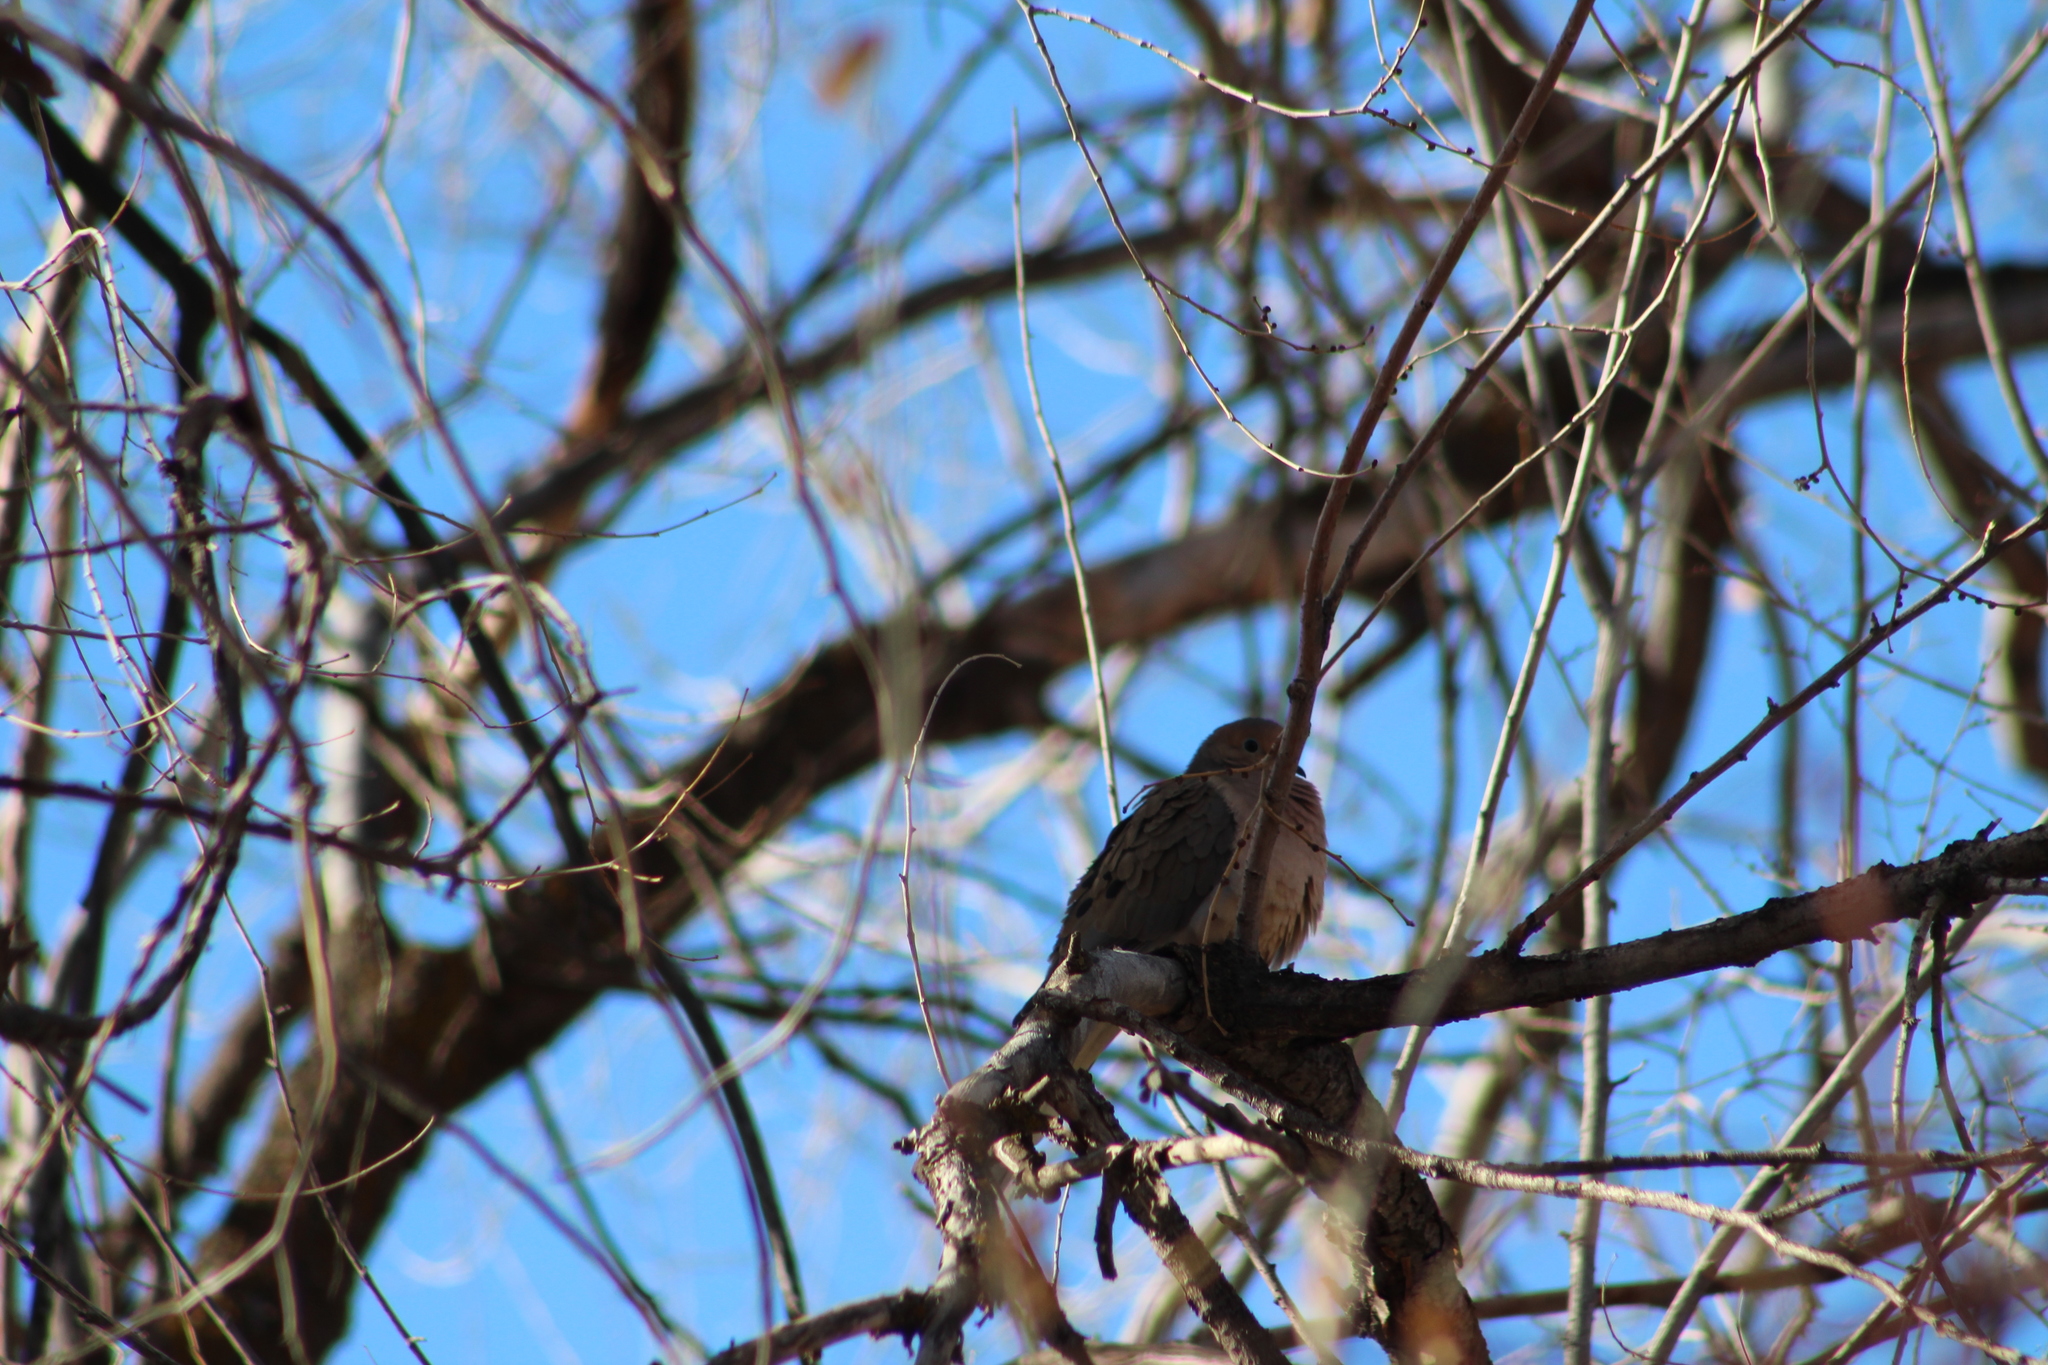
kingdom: Animalia
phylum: Chordata
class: Aves
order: Columbiformes
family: Columbidae
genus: Zenaida
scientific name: Zenaida macroura
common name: Mourning dove
